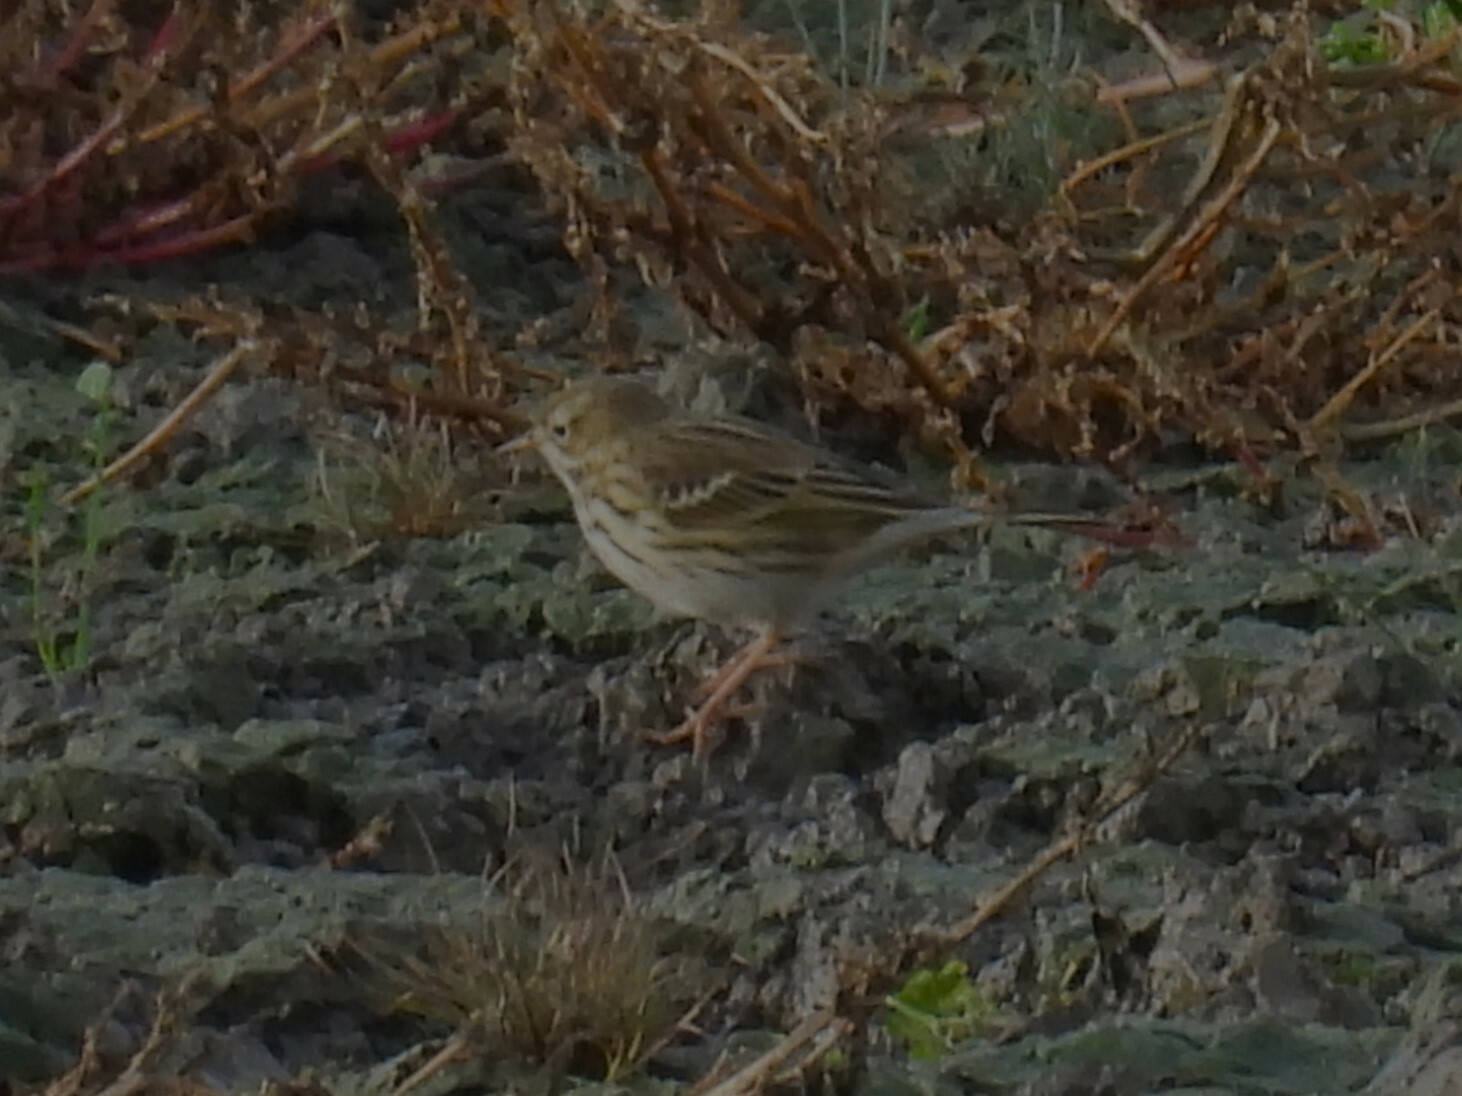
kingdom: Animalia
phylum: Chordata
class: Aves
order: Passeriformes
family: Motacillidae
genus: Anthus
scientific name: Anthus pratensis
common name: Meadow pipit
